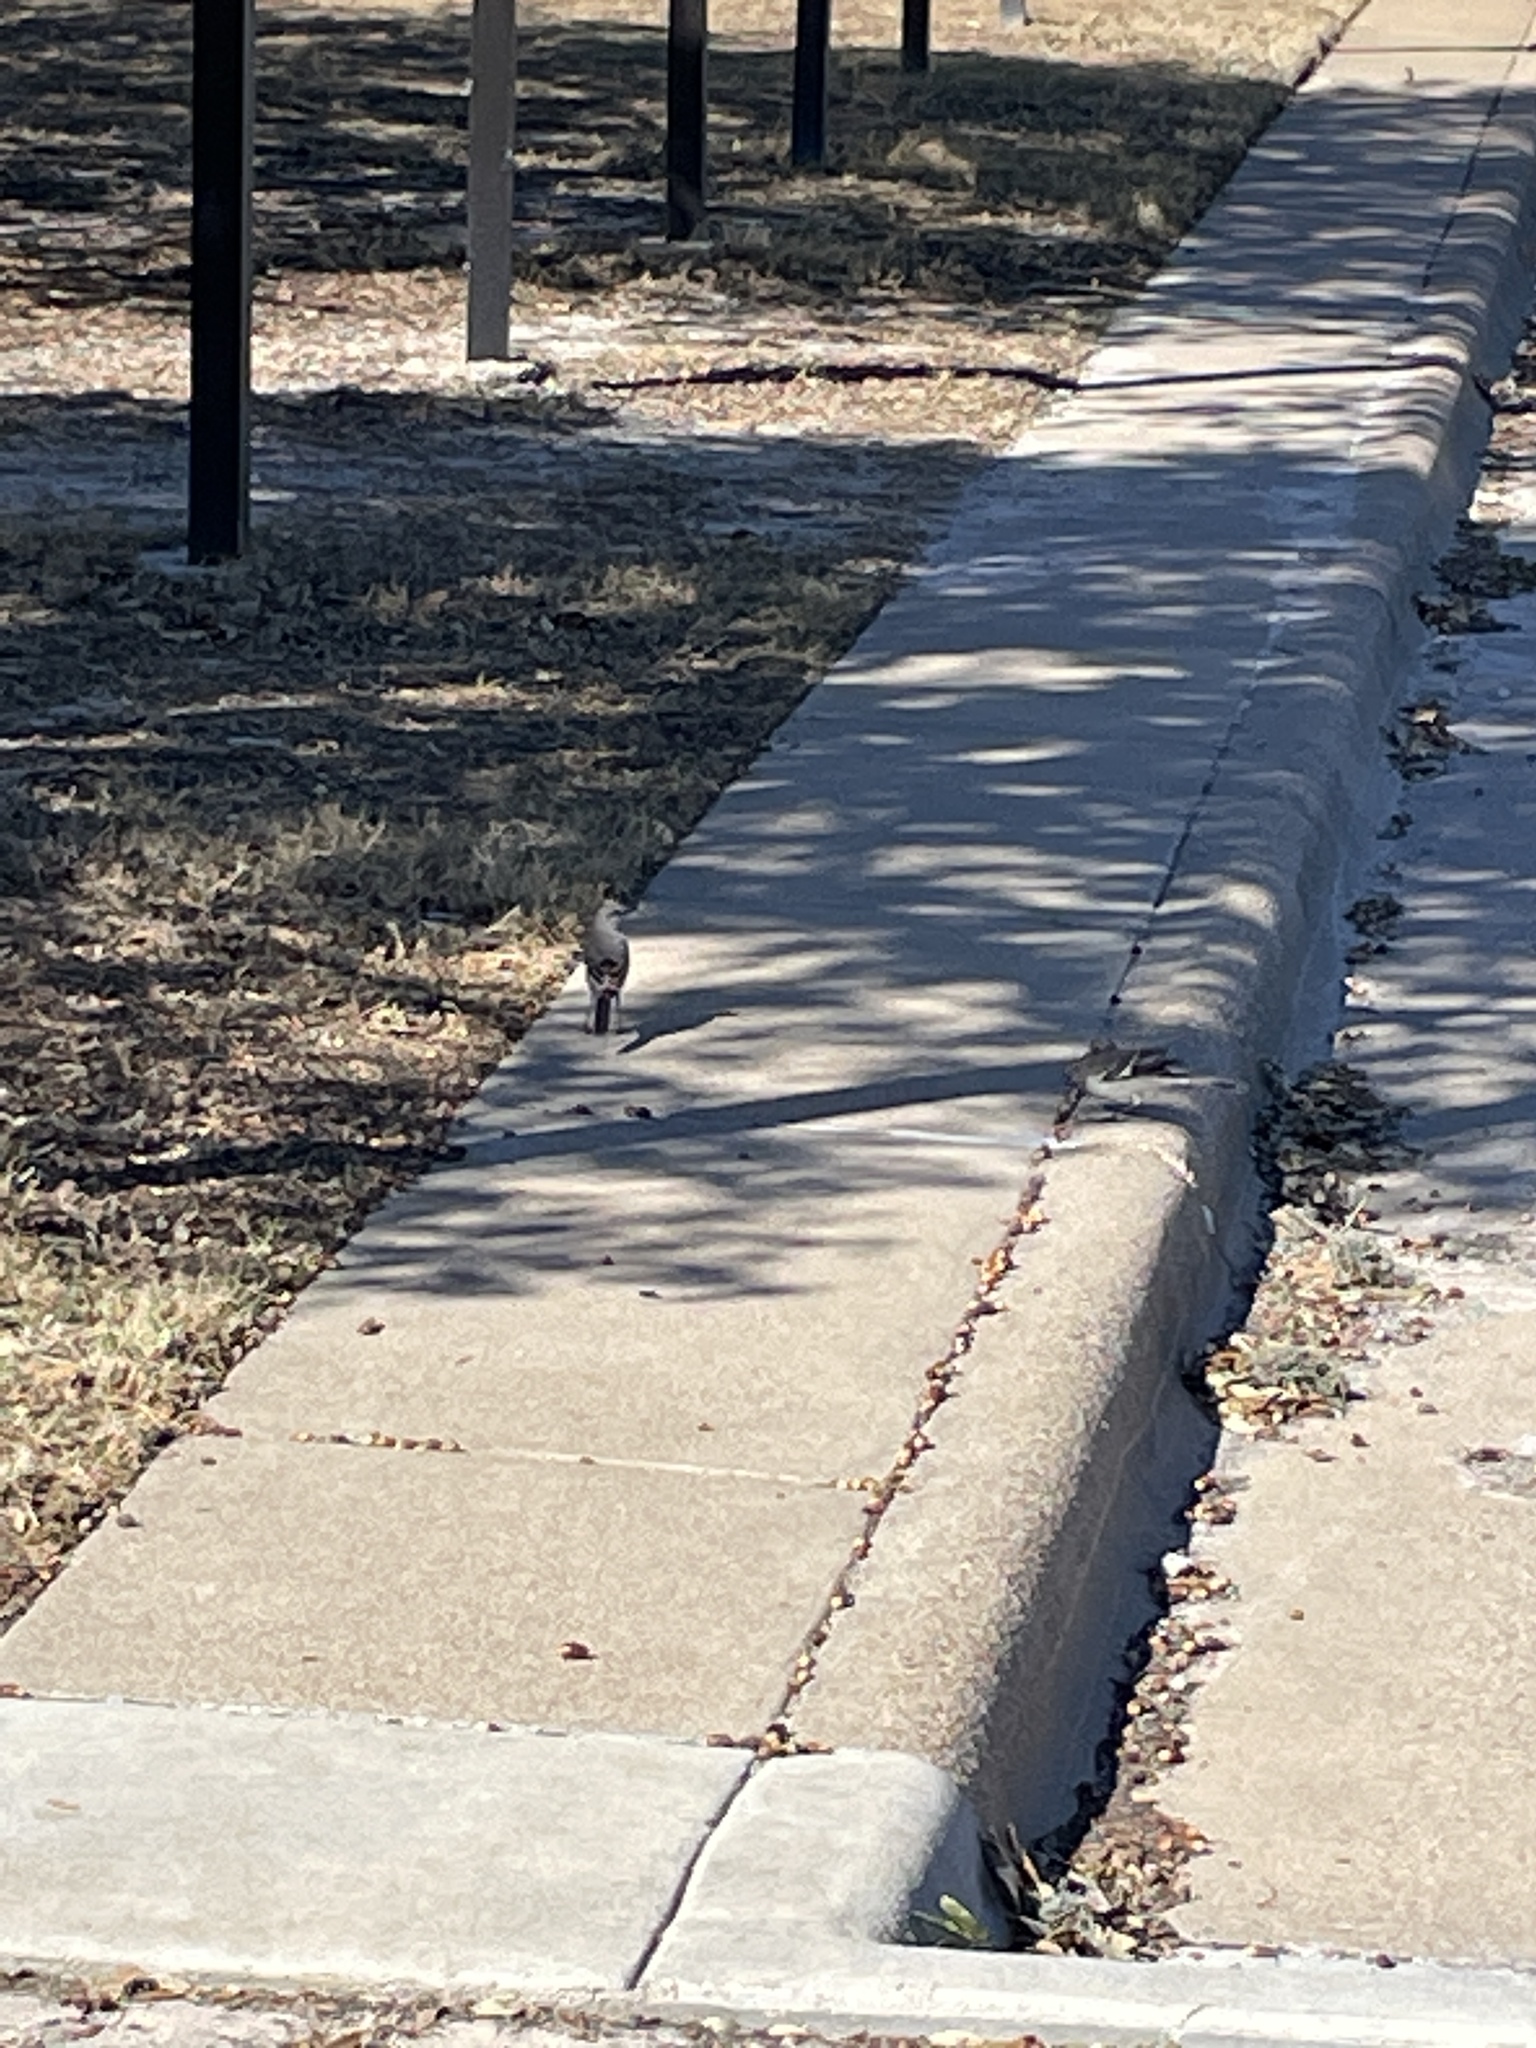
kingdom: Animalia
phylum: Chordata
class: Aves
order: Passeriformes
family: Mimidae
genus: Mimus
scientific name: Mimus polyglottos
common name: Northern mockingbird
